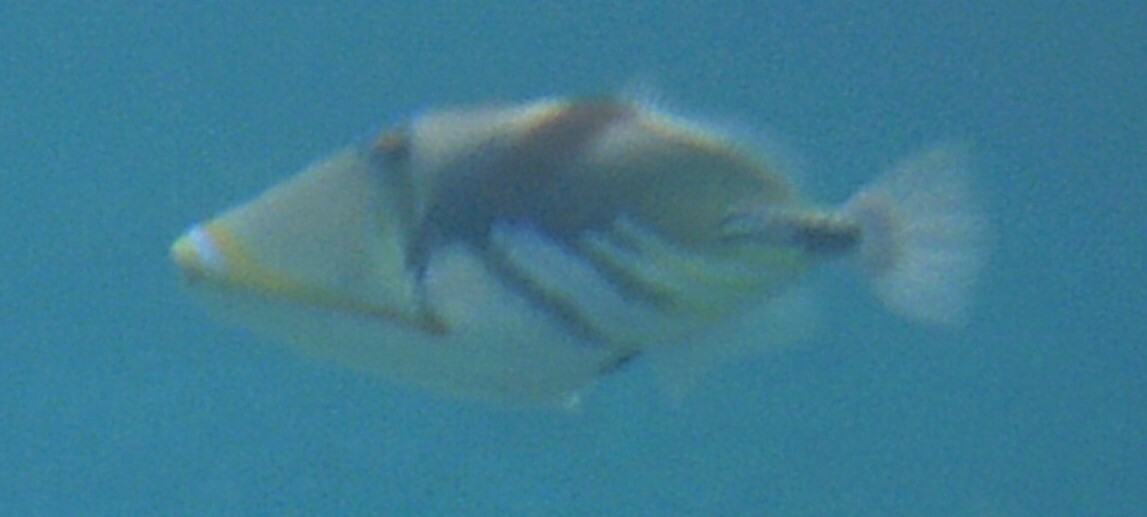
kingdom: Animalia
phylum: Chordata
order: Tetraodontiformes
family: Balistidae
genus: Rhinecanthus
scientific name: Rhinecanthus aculeatus
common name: White-banded triggerfish
